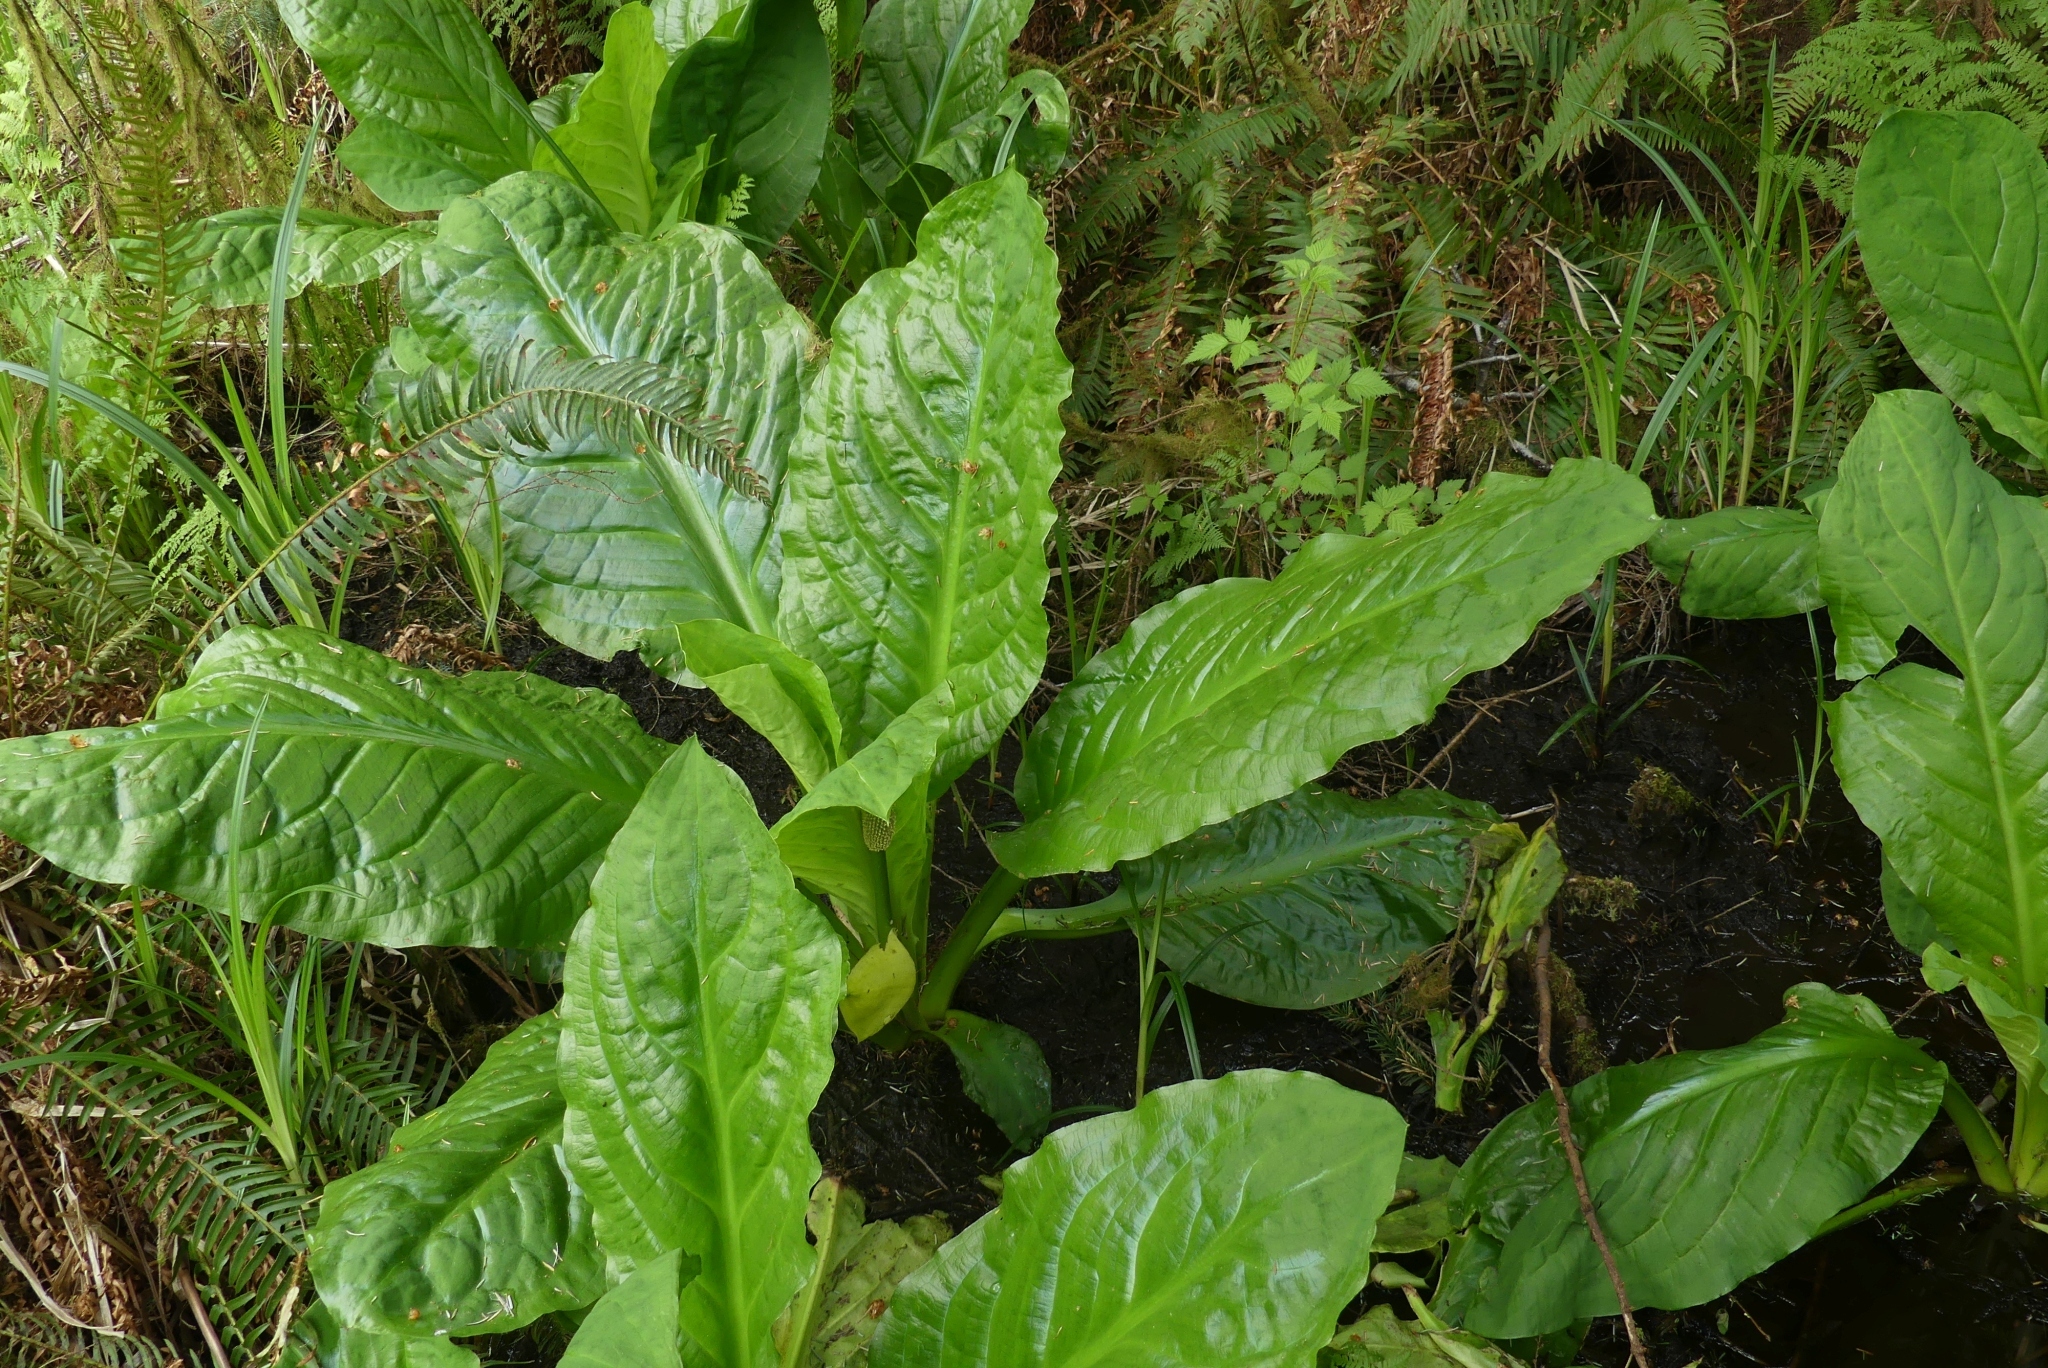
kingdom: Plantae
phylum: Tracheophyta
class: Liliopsida
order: Alismatales
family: Araceae
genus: Lysichiton
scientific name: Lysichiton americanus
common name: American skunk cabbage
